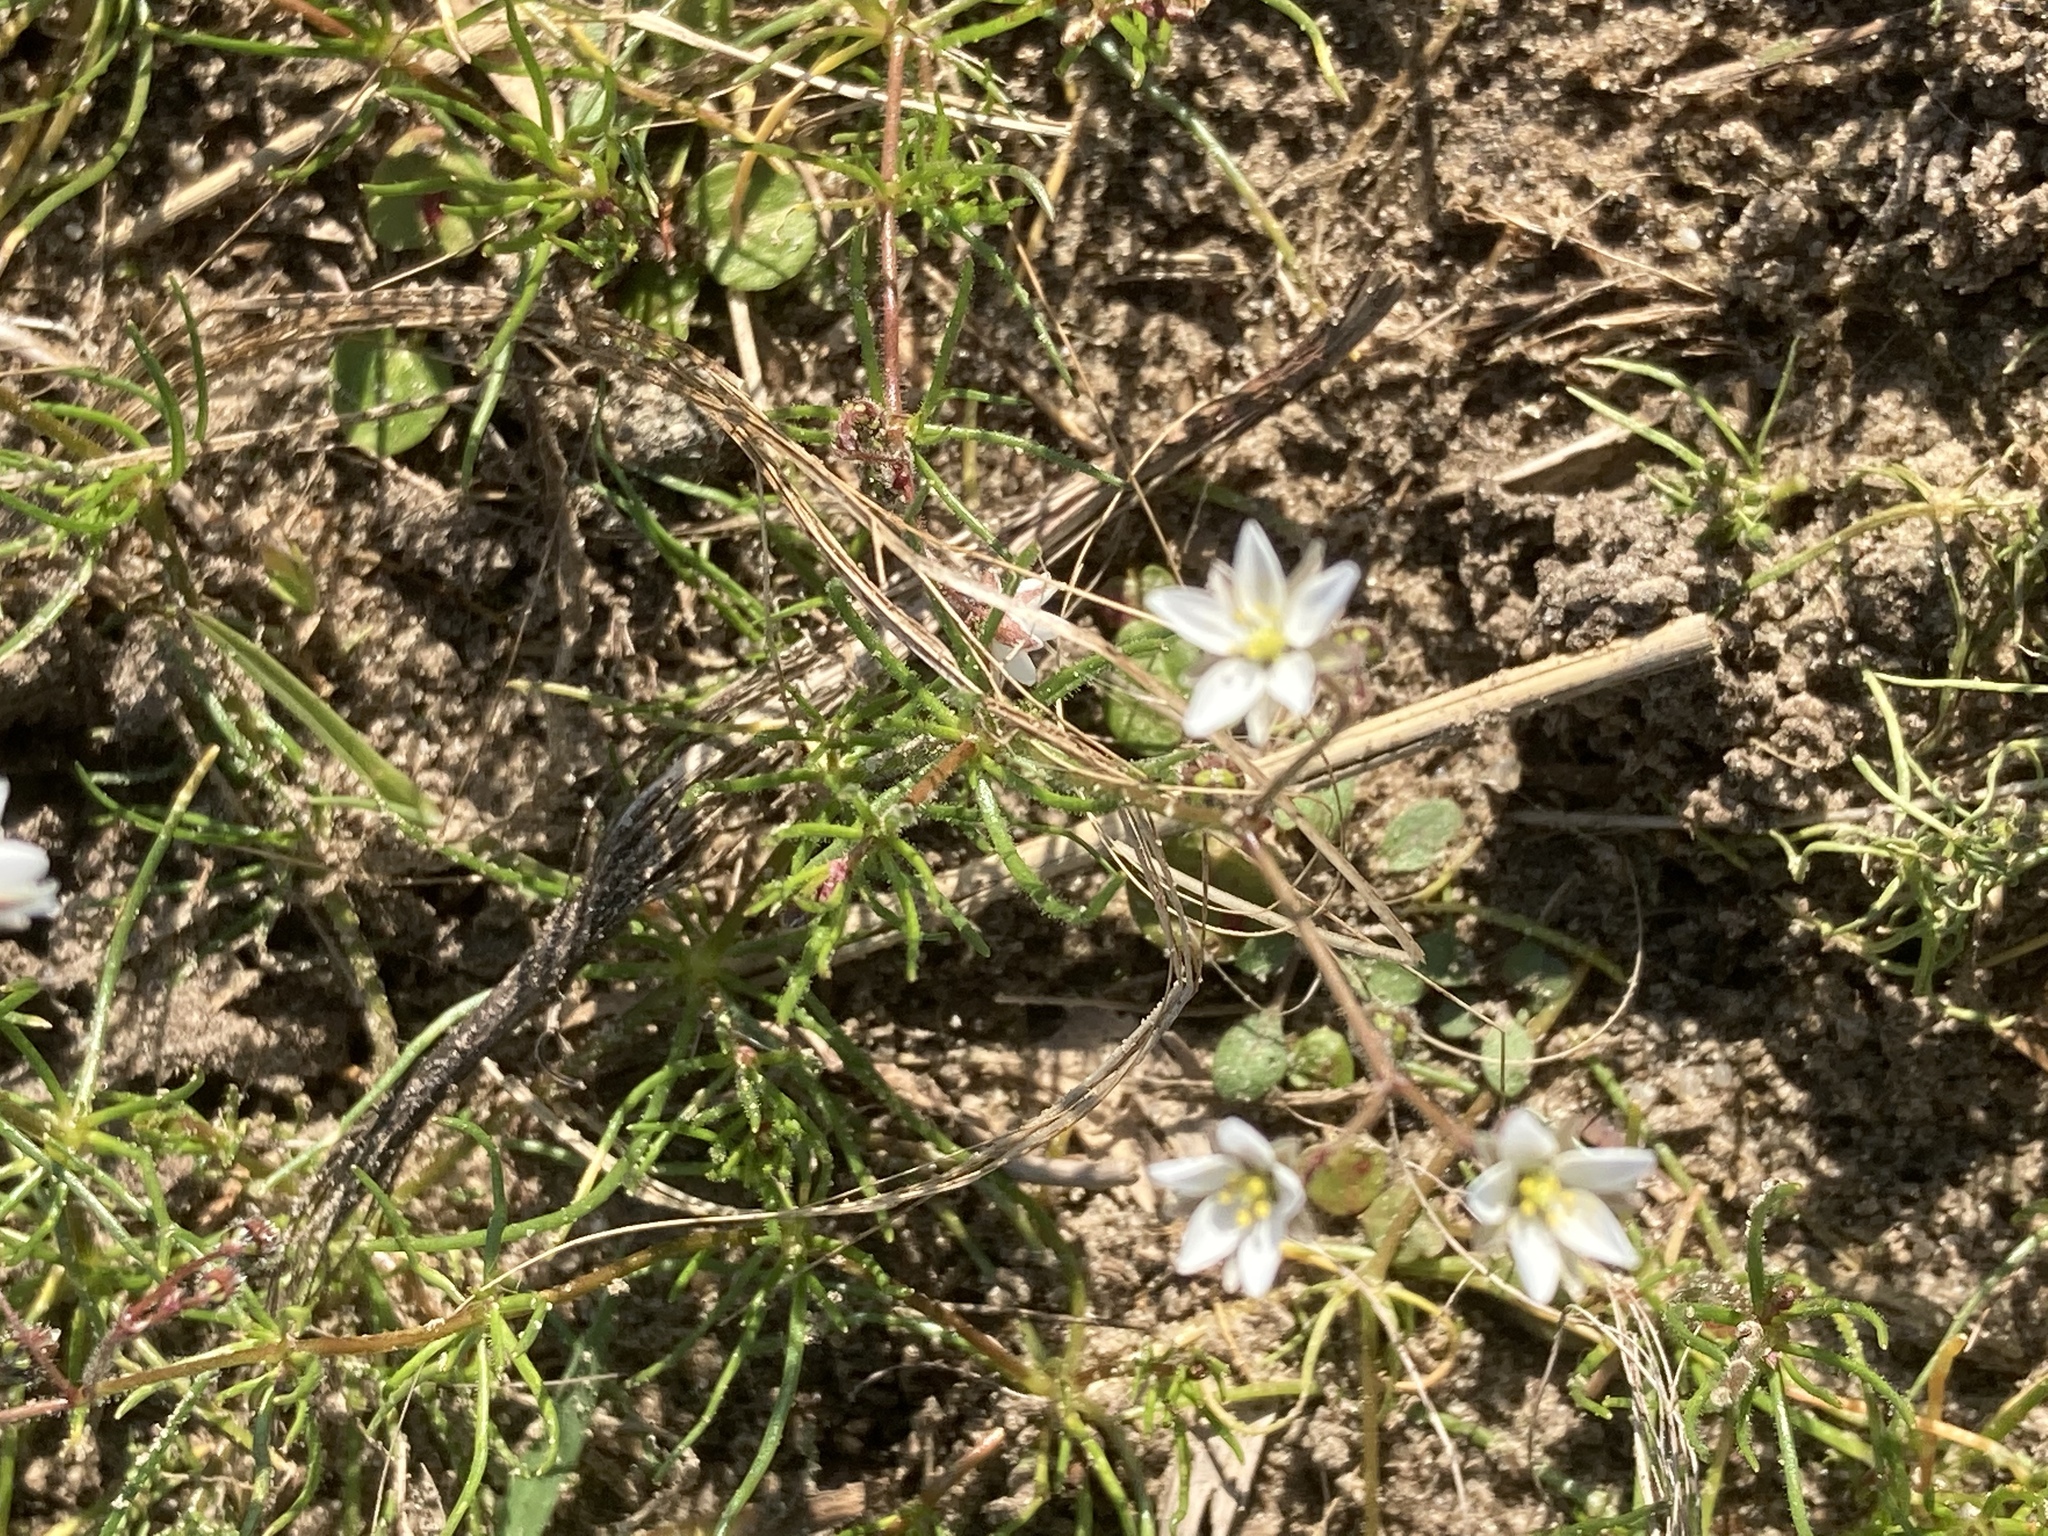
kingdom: Plantae
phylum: Tracheophyta
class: Magnoliopsida
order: Caryophyllales
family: Caryophyllaceae
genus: Spergula
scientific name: Spergula arvensis
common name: Corn spurrey
